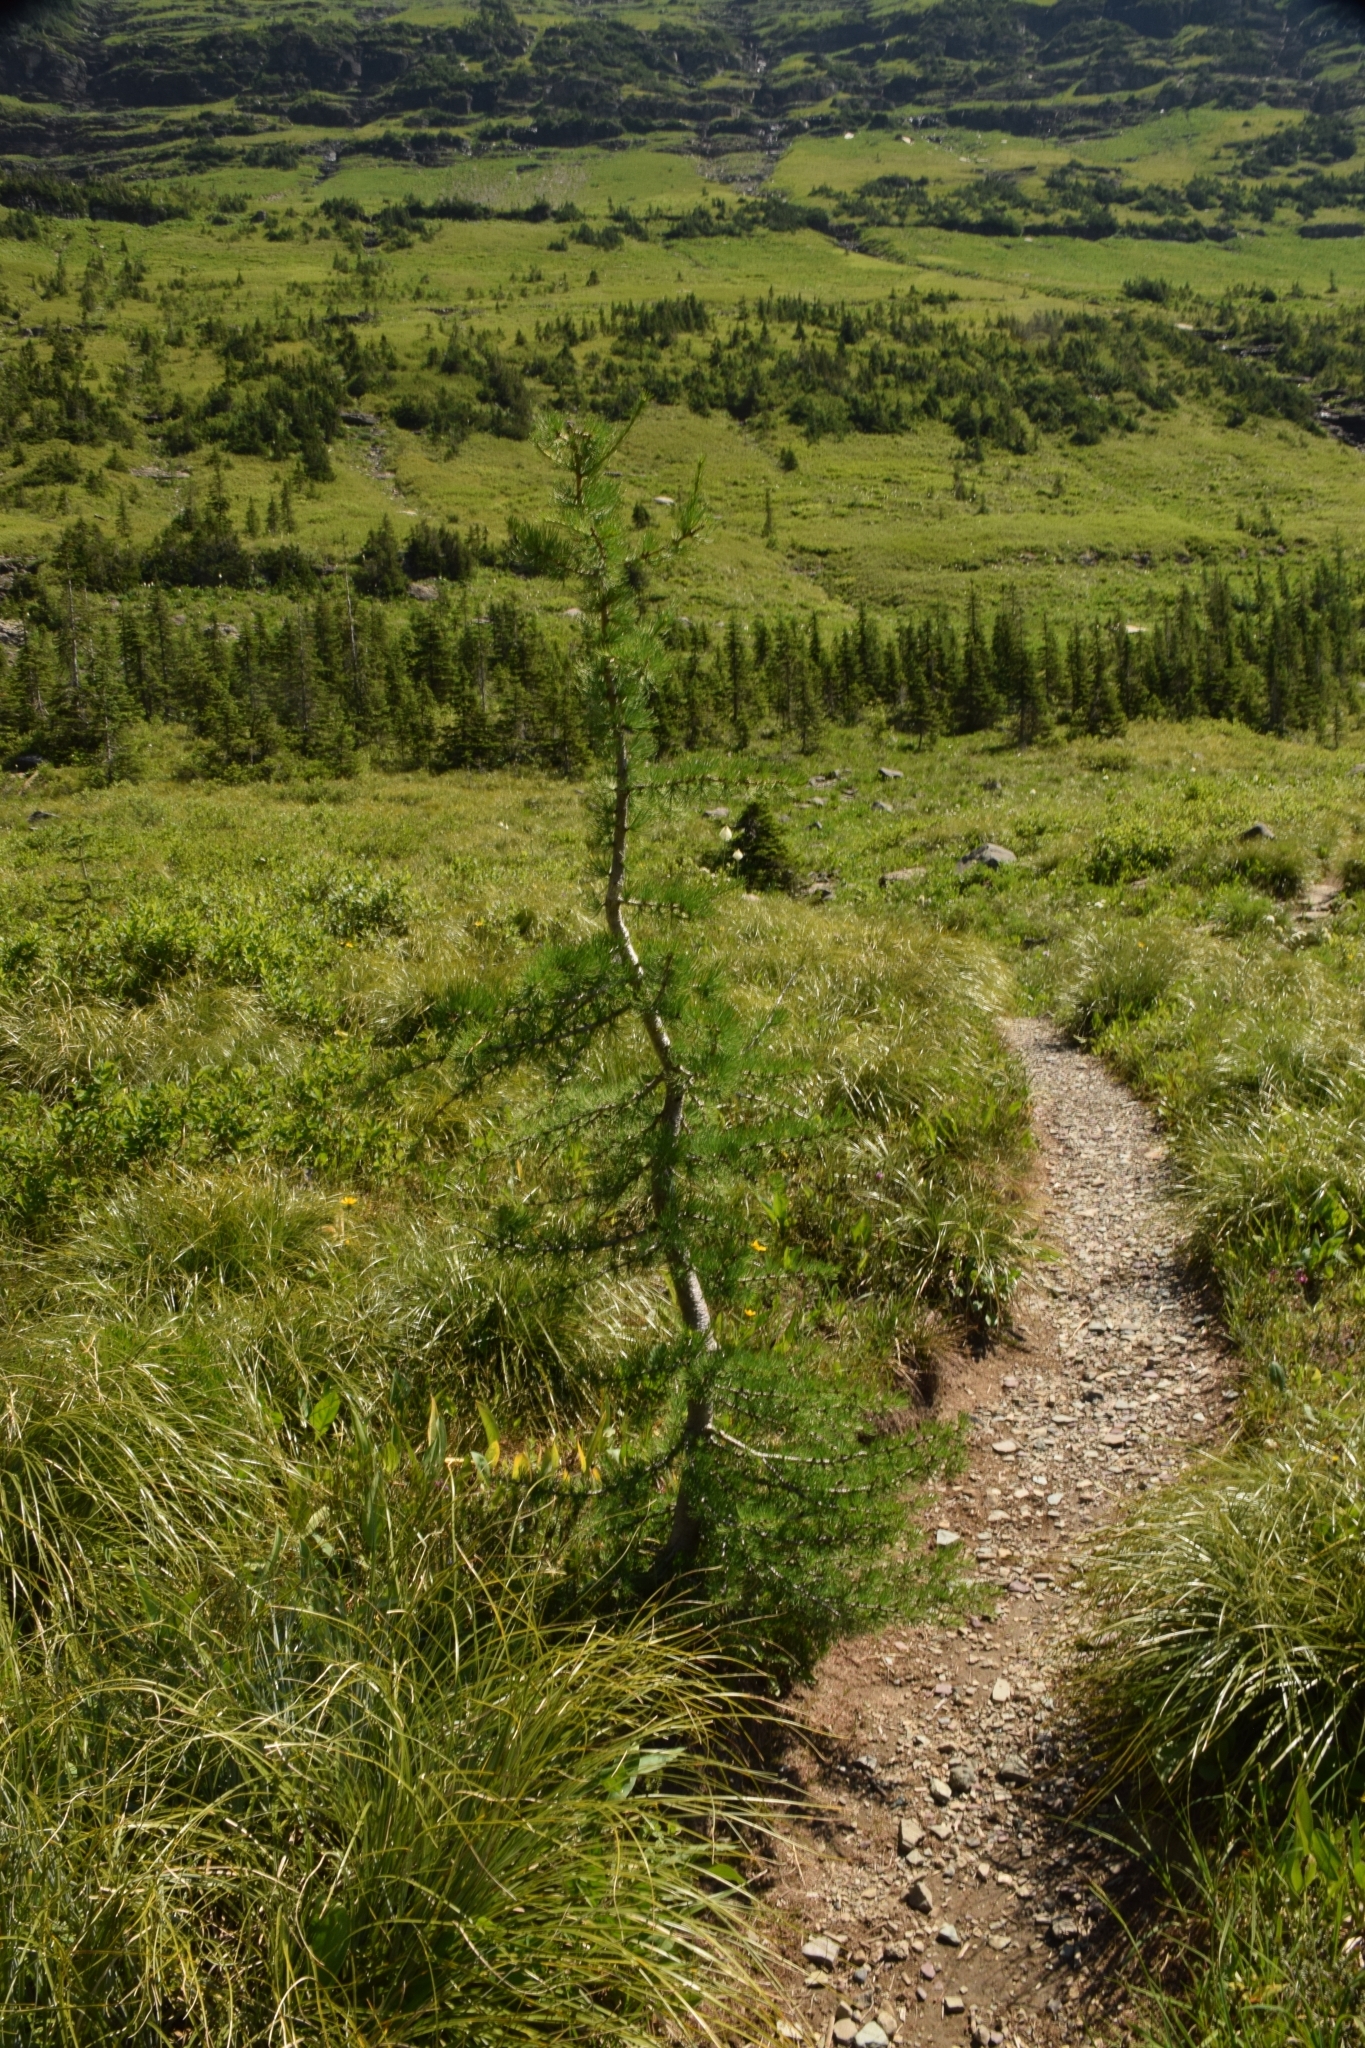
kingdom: Plantae
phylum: Tracheophyta
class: Pinopsida
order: Pinales
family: Pinaceae
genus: Larix
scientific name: Larix lyallii
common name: Alpine larch
